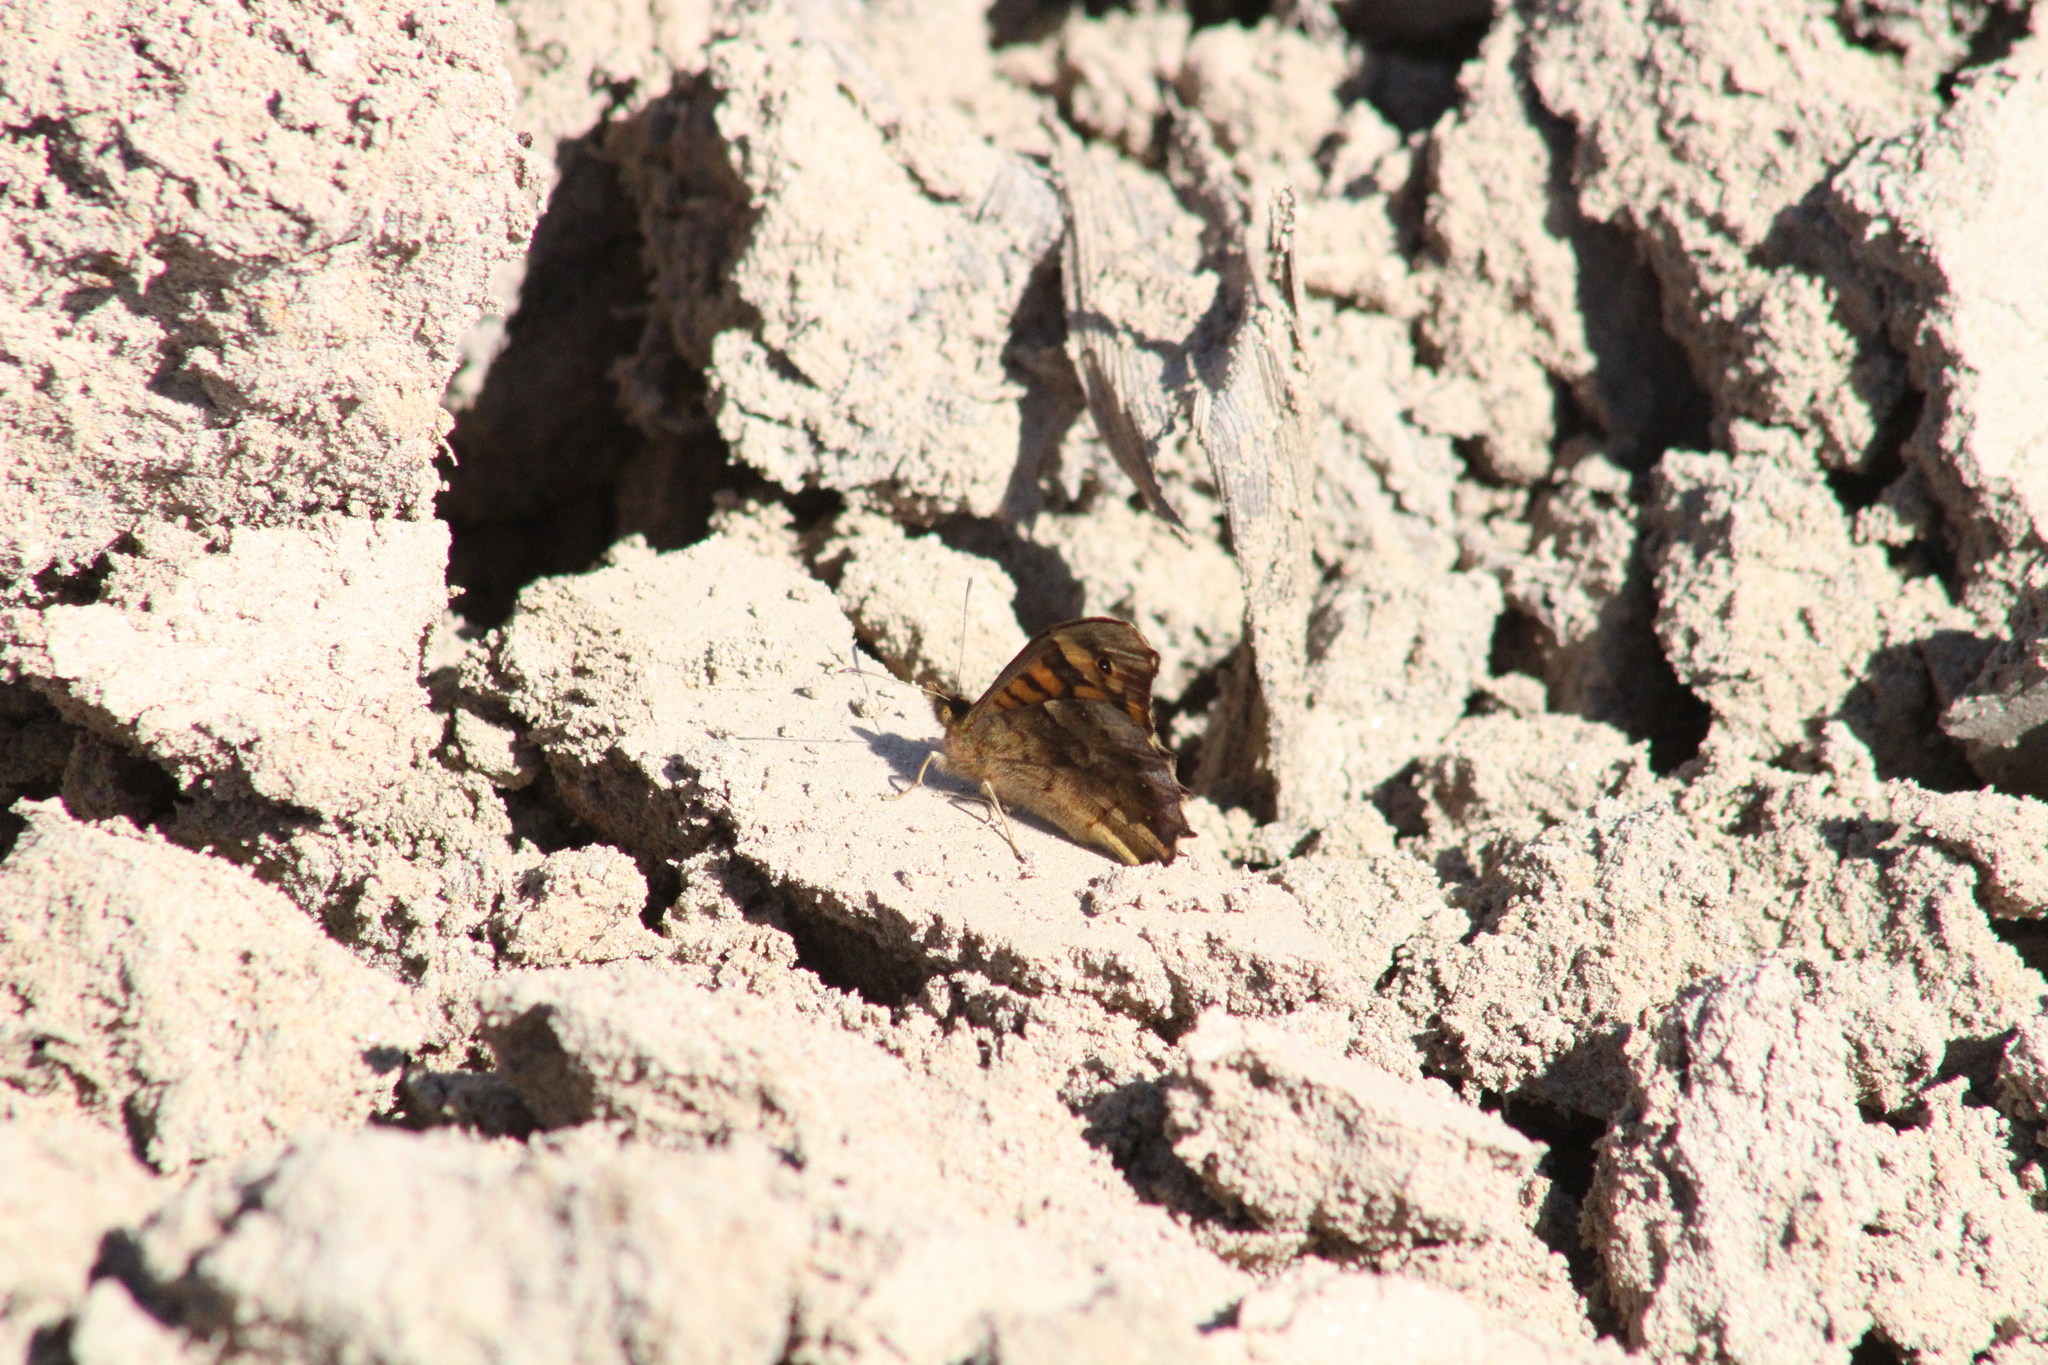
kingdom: Animalia
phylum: Arthropoda
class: Insecta
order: Lepidoptera
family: Nymphalidae
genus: Pararge
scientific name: Pararge aegeria
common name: Speckled wood
